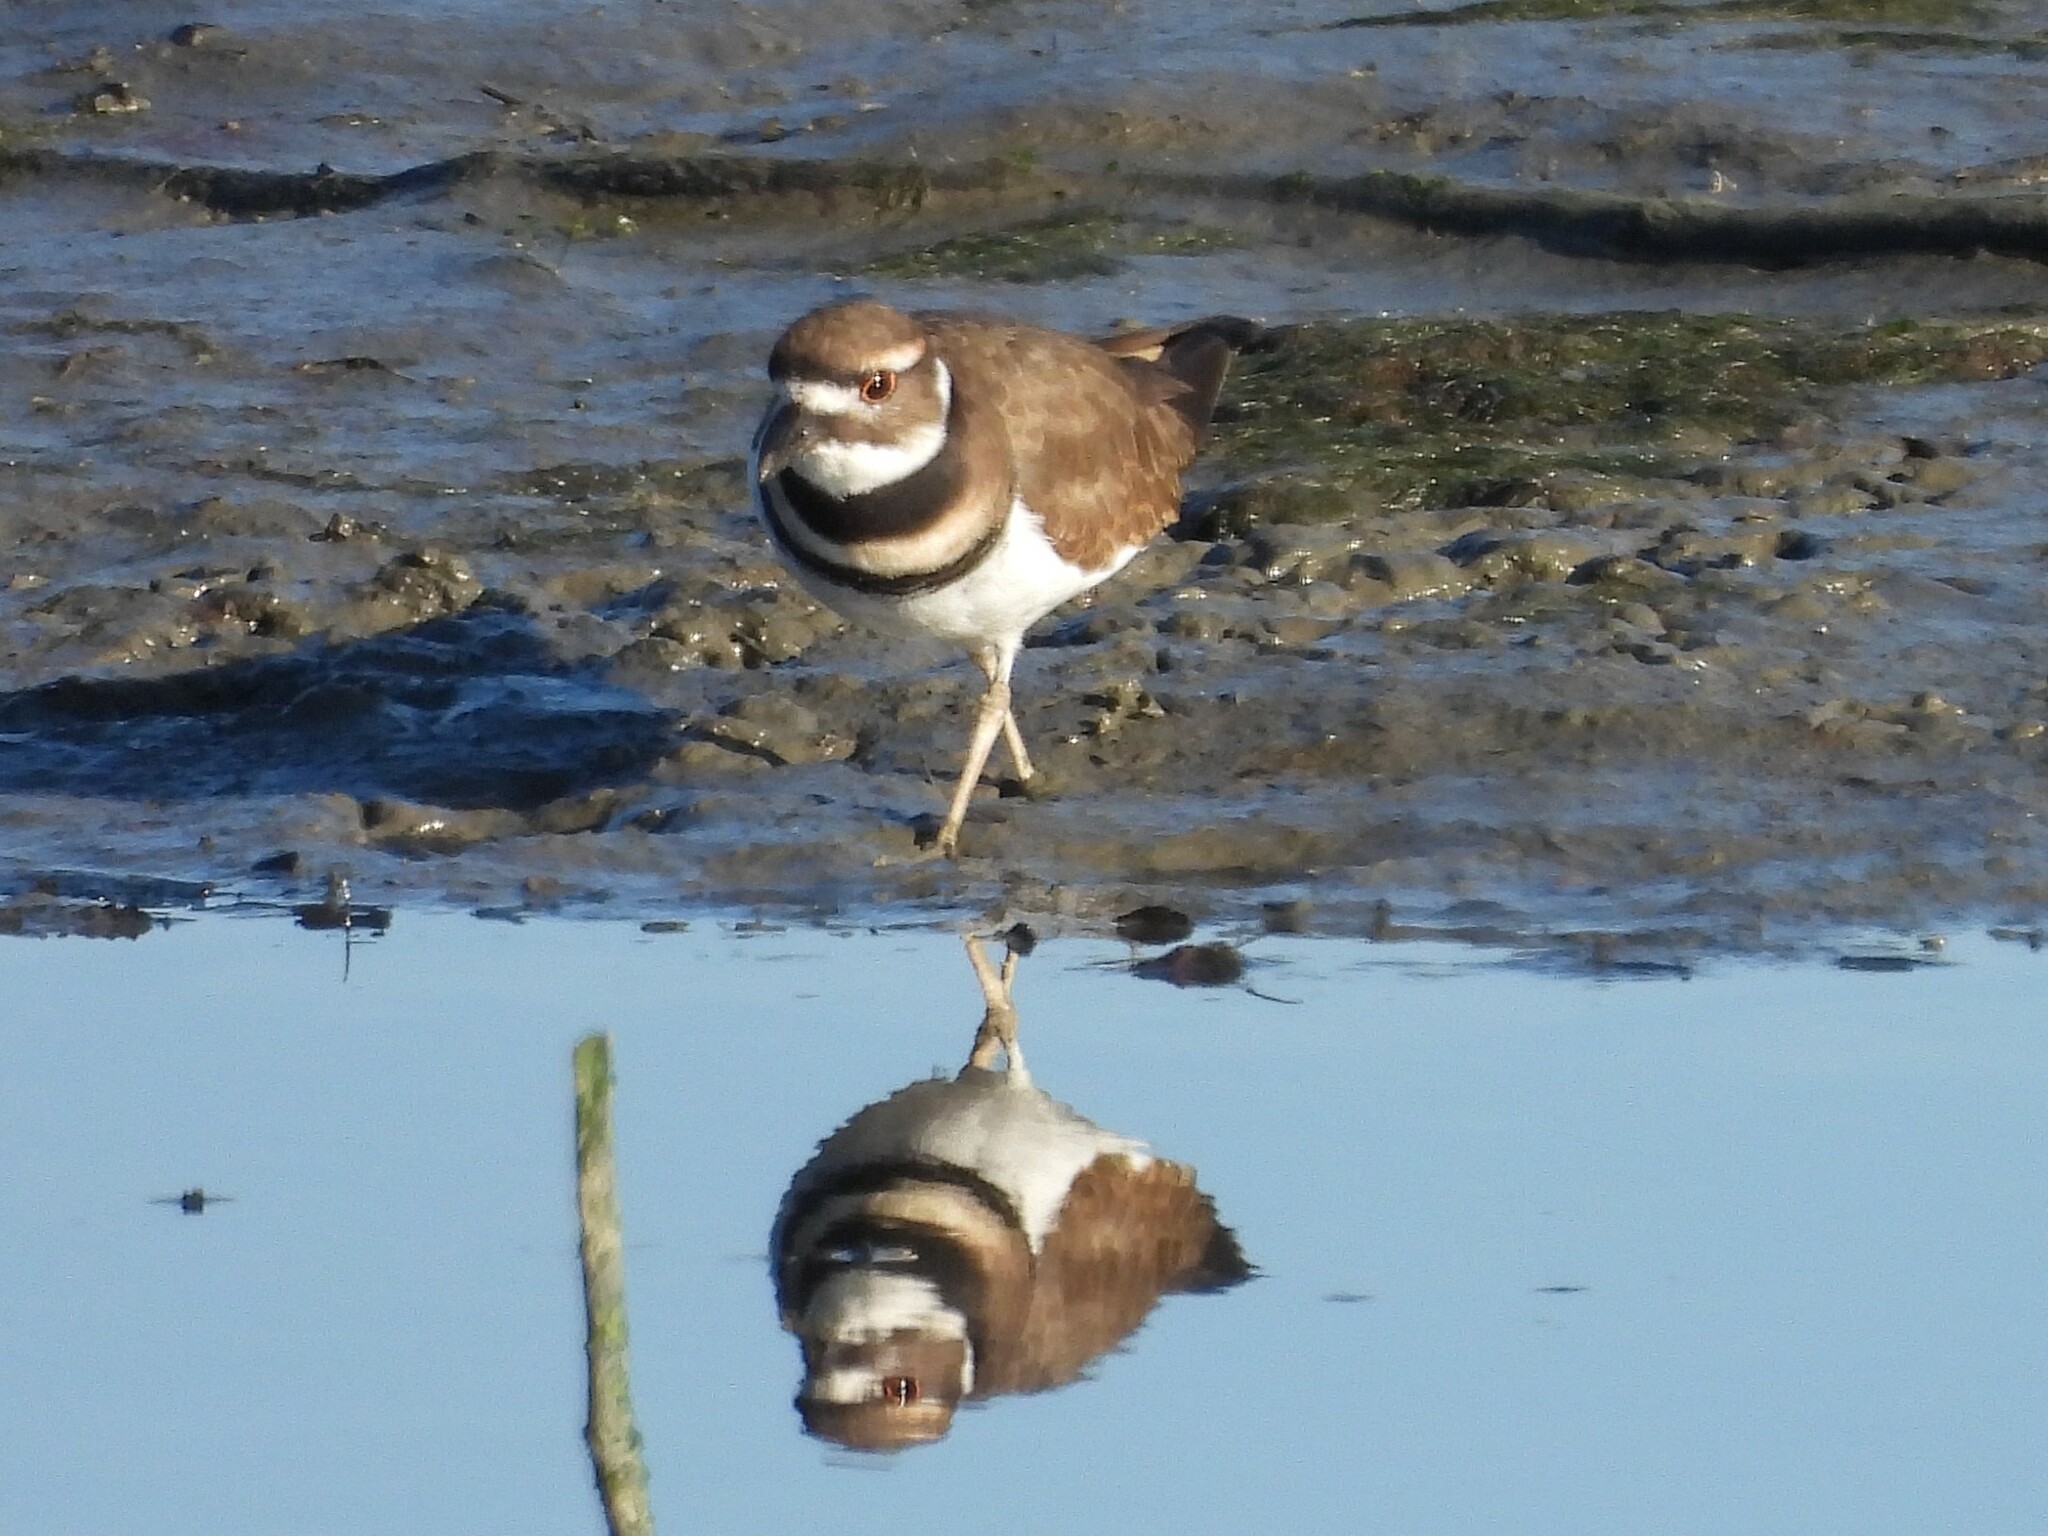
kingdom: Animalia
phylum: Chordata
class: Aves
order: Charadriiformes
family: Charadriidae
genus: Charadrius
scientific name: Charadrius vociferus
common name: Killdeer
